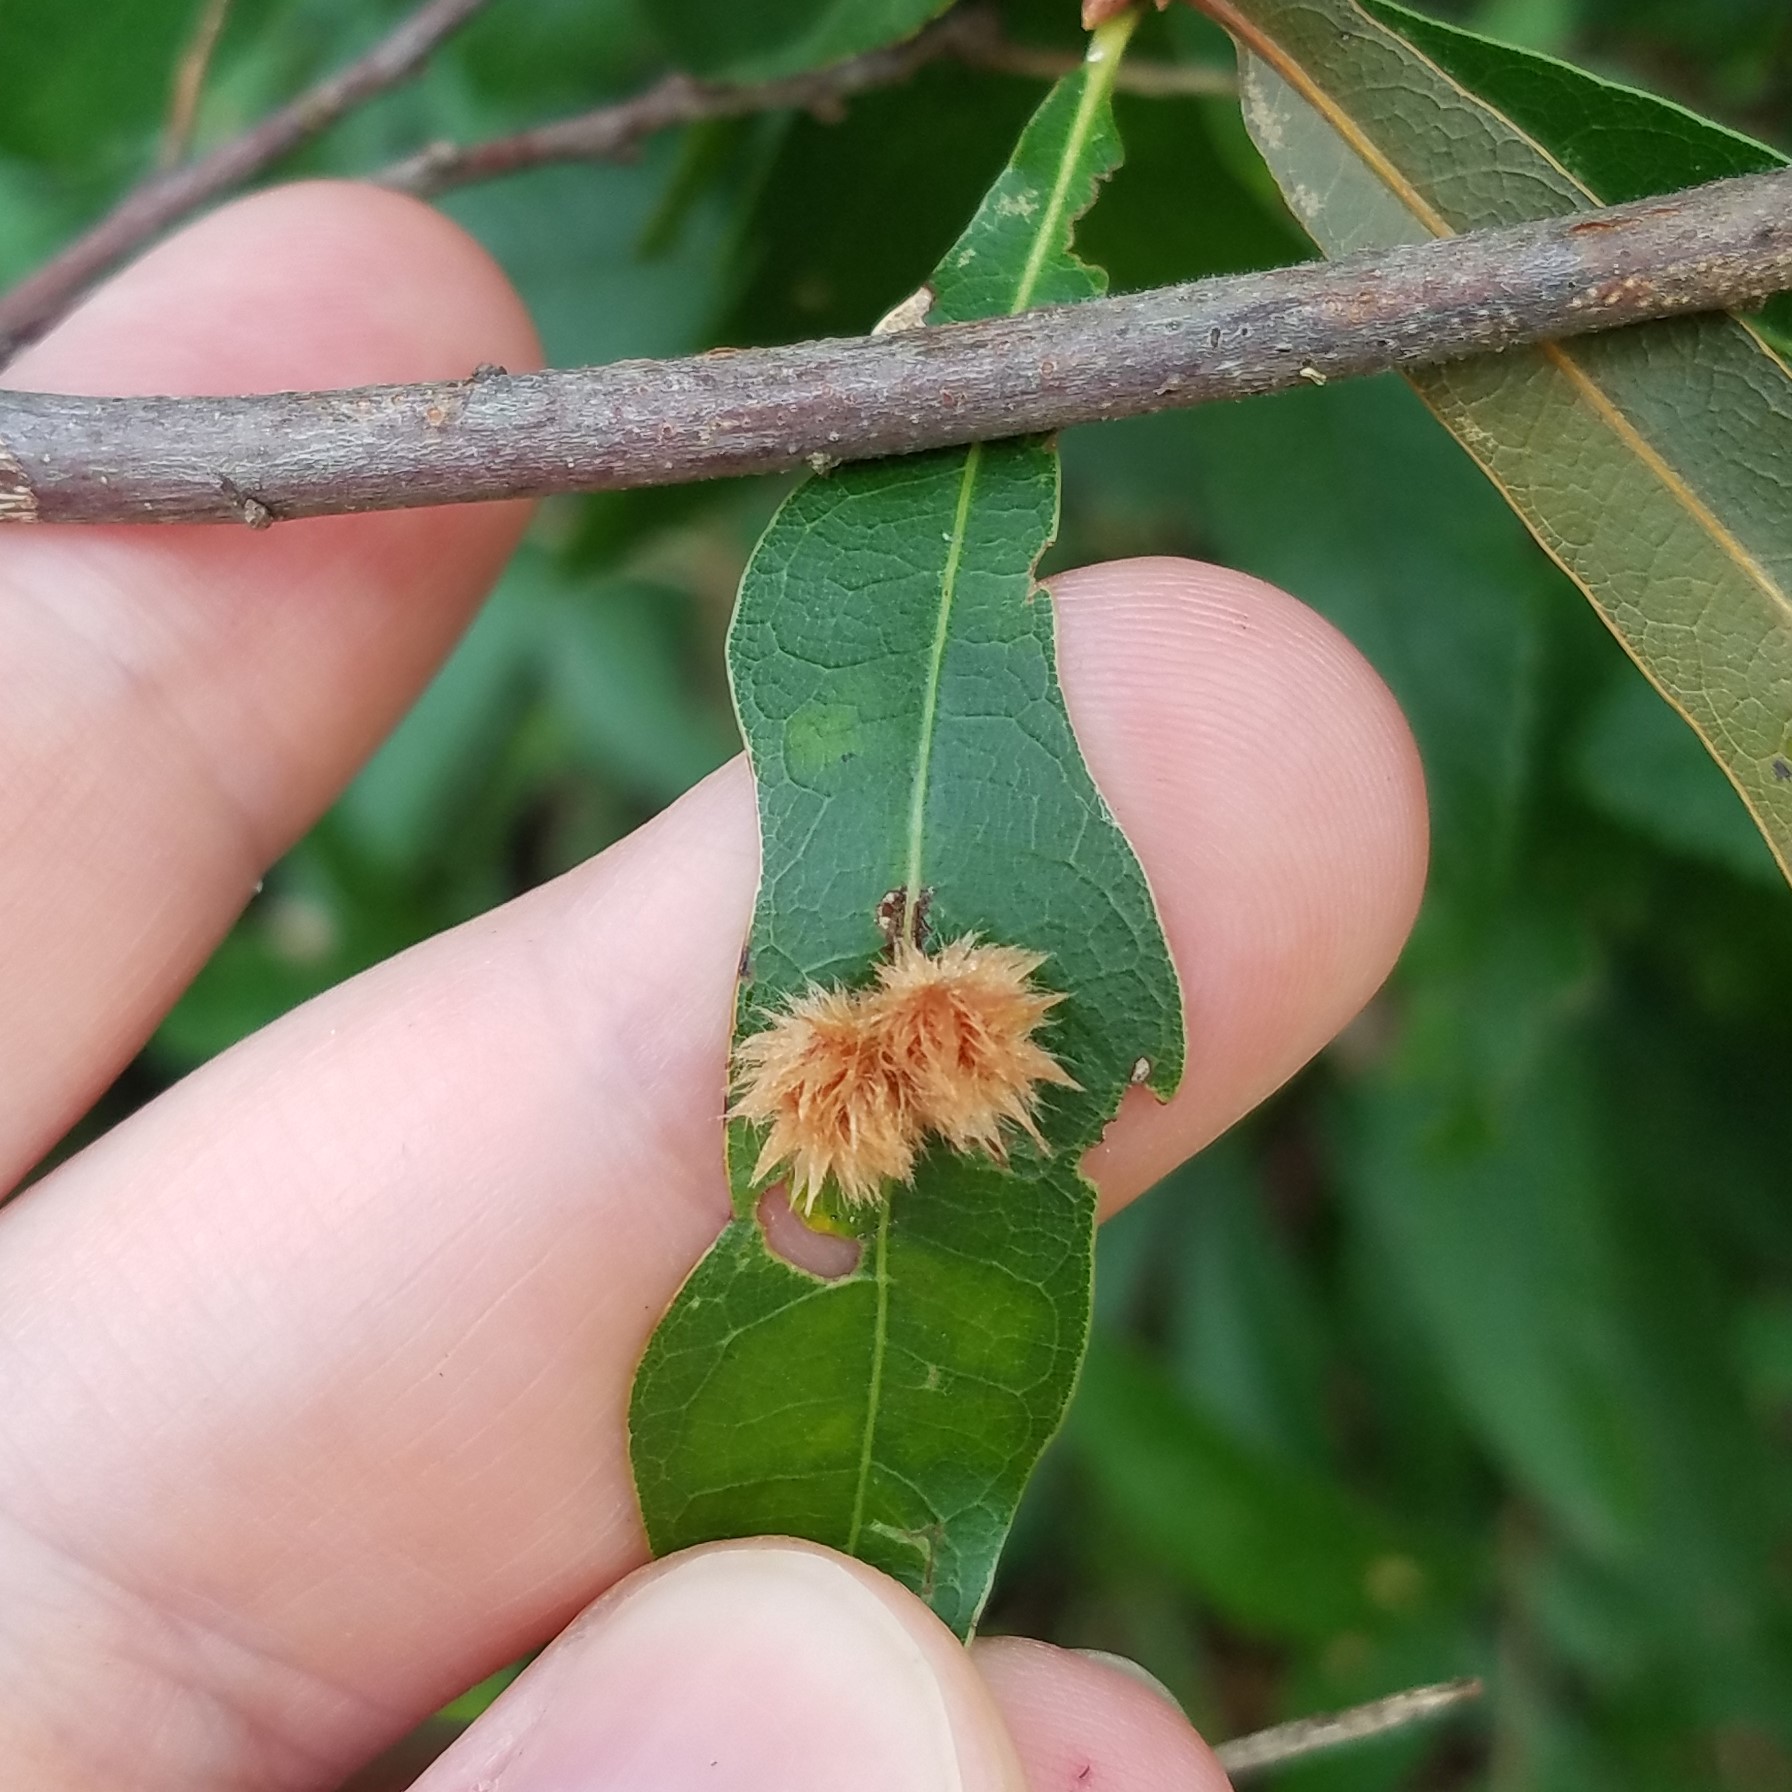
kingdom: Animalia
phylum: Arthropoda
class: Insecta
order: Hymenoptera
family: Cynipidae
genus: Callirhytis
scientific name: Callirhytis
